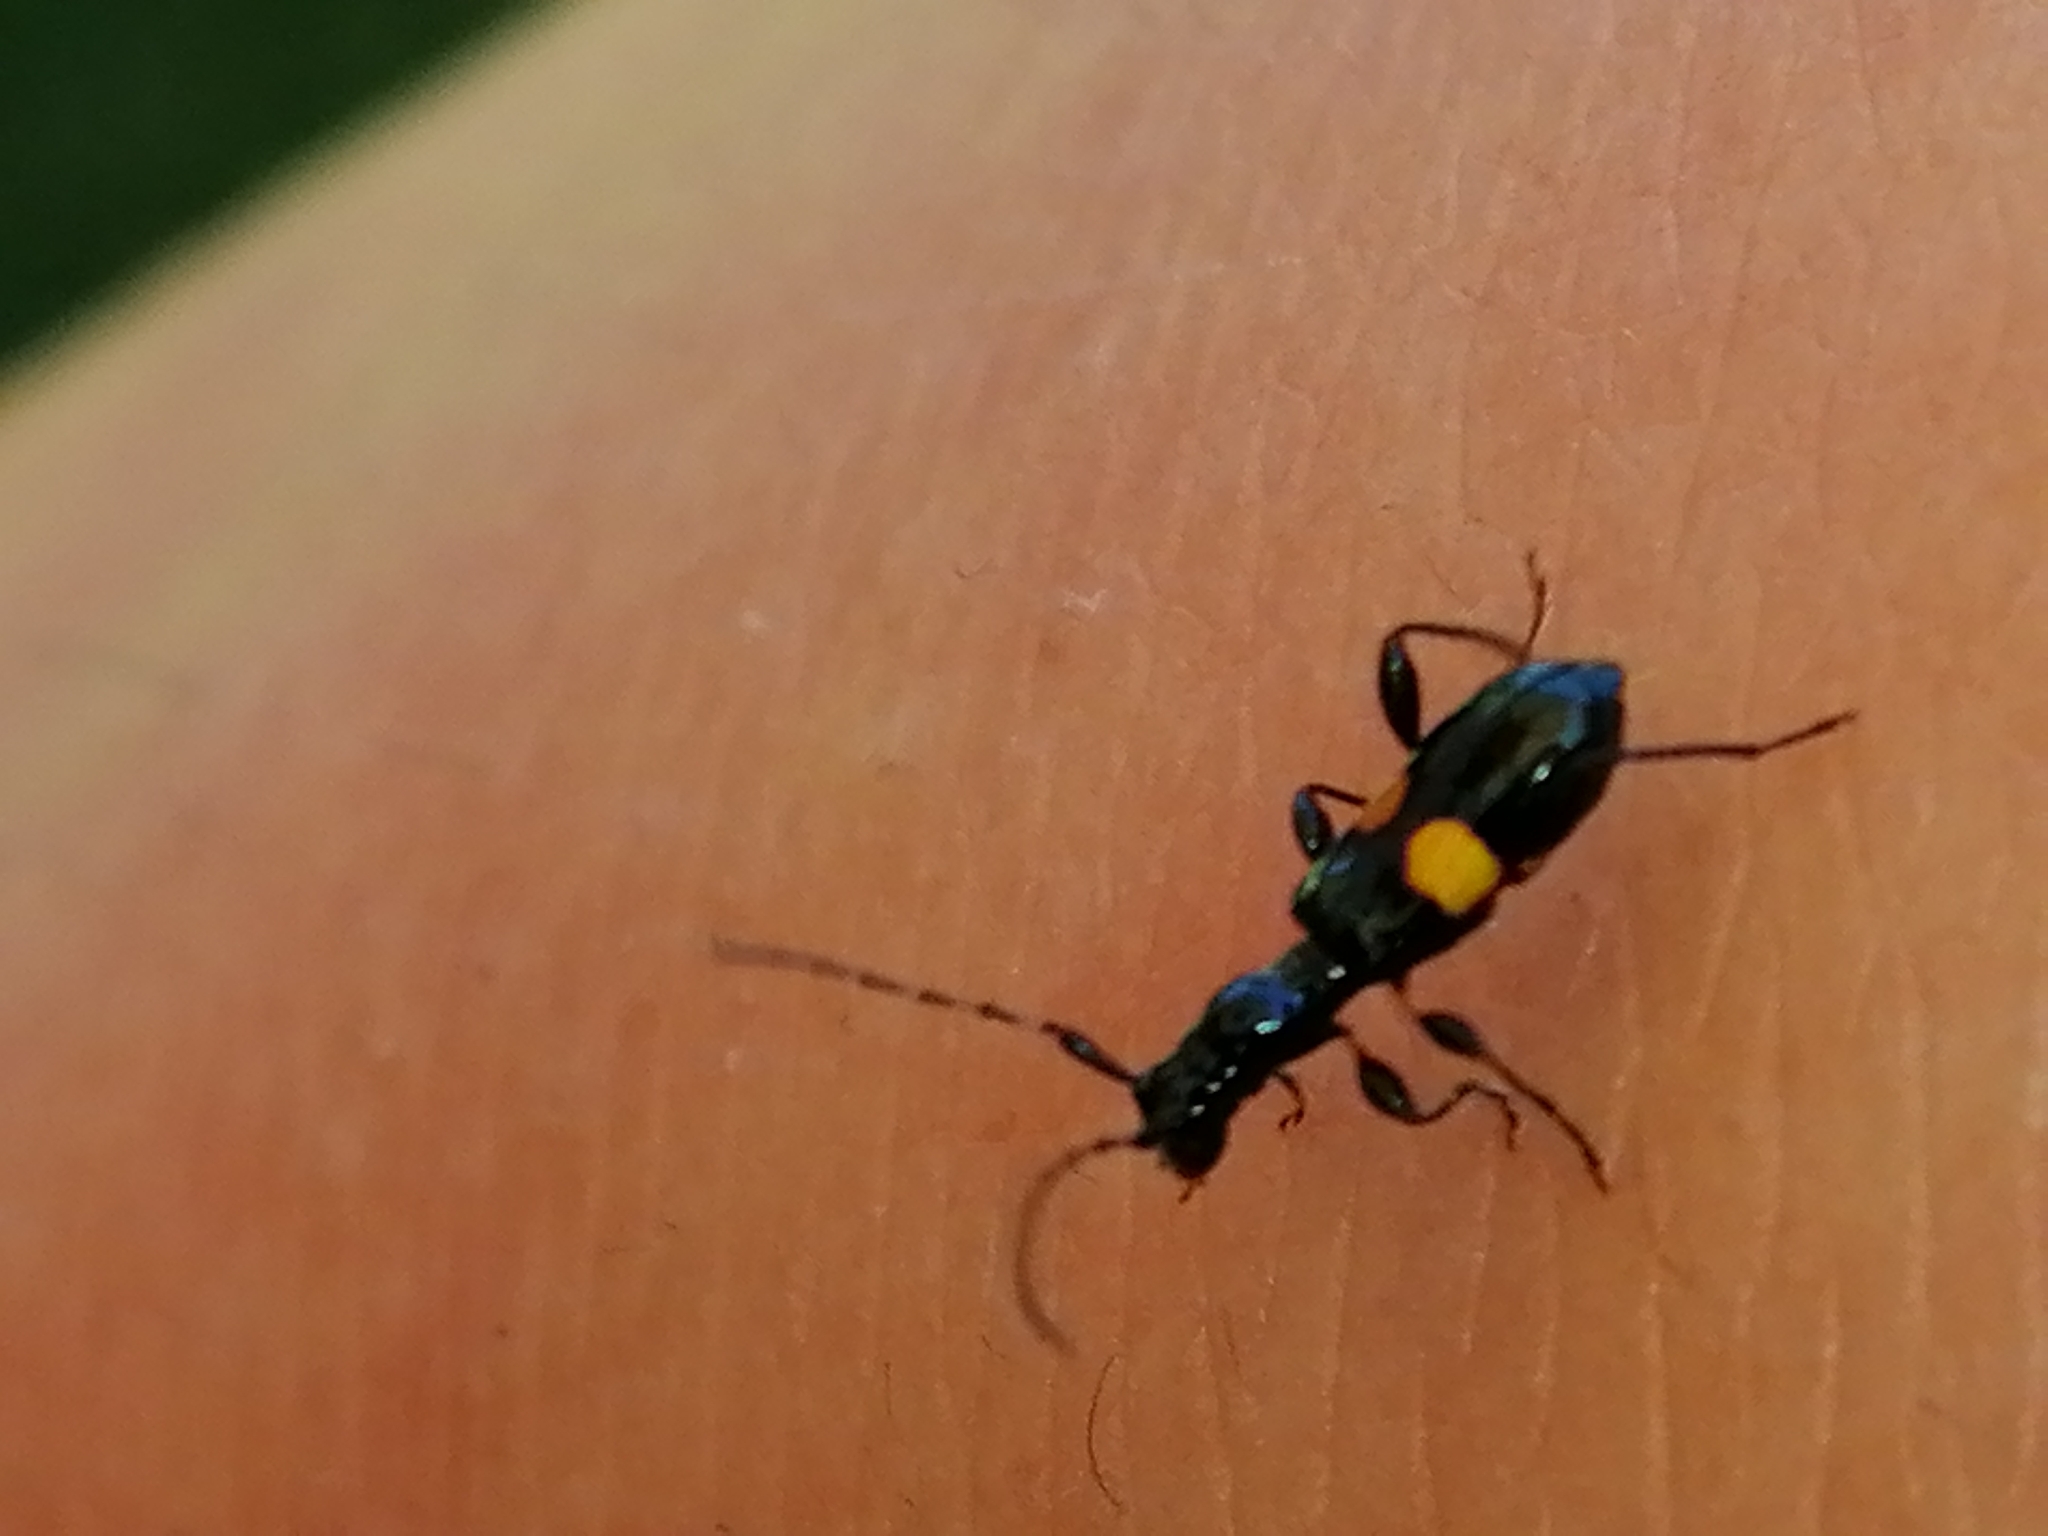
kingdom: Animalia
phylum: Arthropoda
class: Insecta
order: Coleoptera
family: Cerambycidae
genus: Zorion
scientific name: Zorion guttigerum
